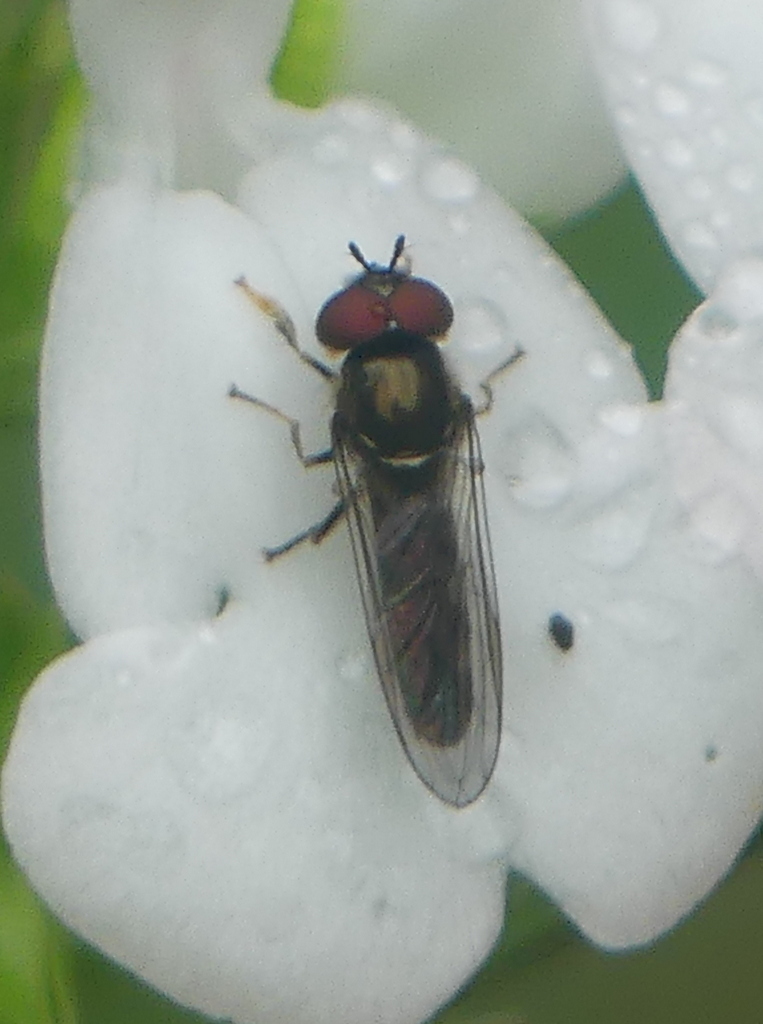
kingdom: Animalia
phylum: Arthropoda
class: Insecta
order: Diptera
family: Syrphidae
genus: Platycheirus
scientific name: Platycheirus albimanus
